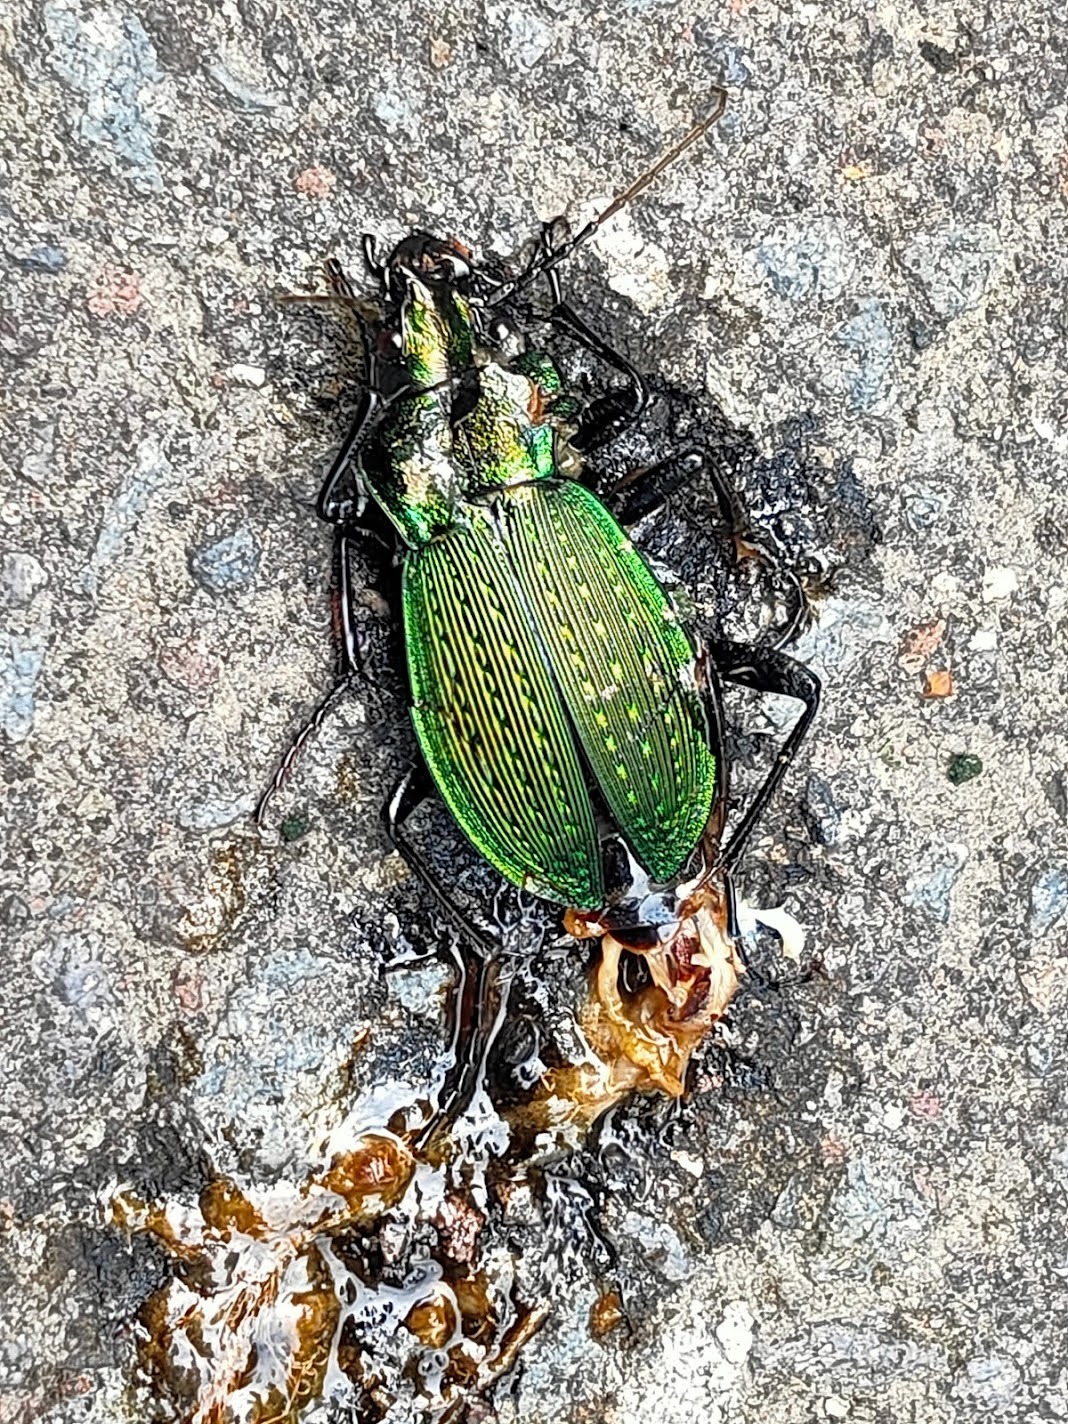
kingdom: Animalia
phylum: Arthropoda
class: Insecta
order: Coleoptera
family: Carabidae
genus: Carabus
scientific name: Carabus insulicola
